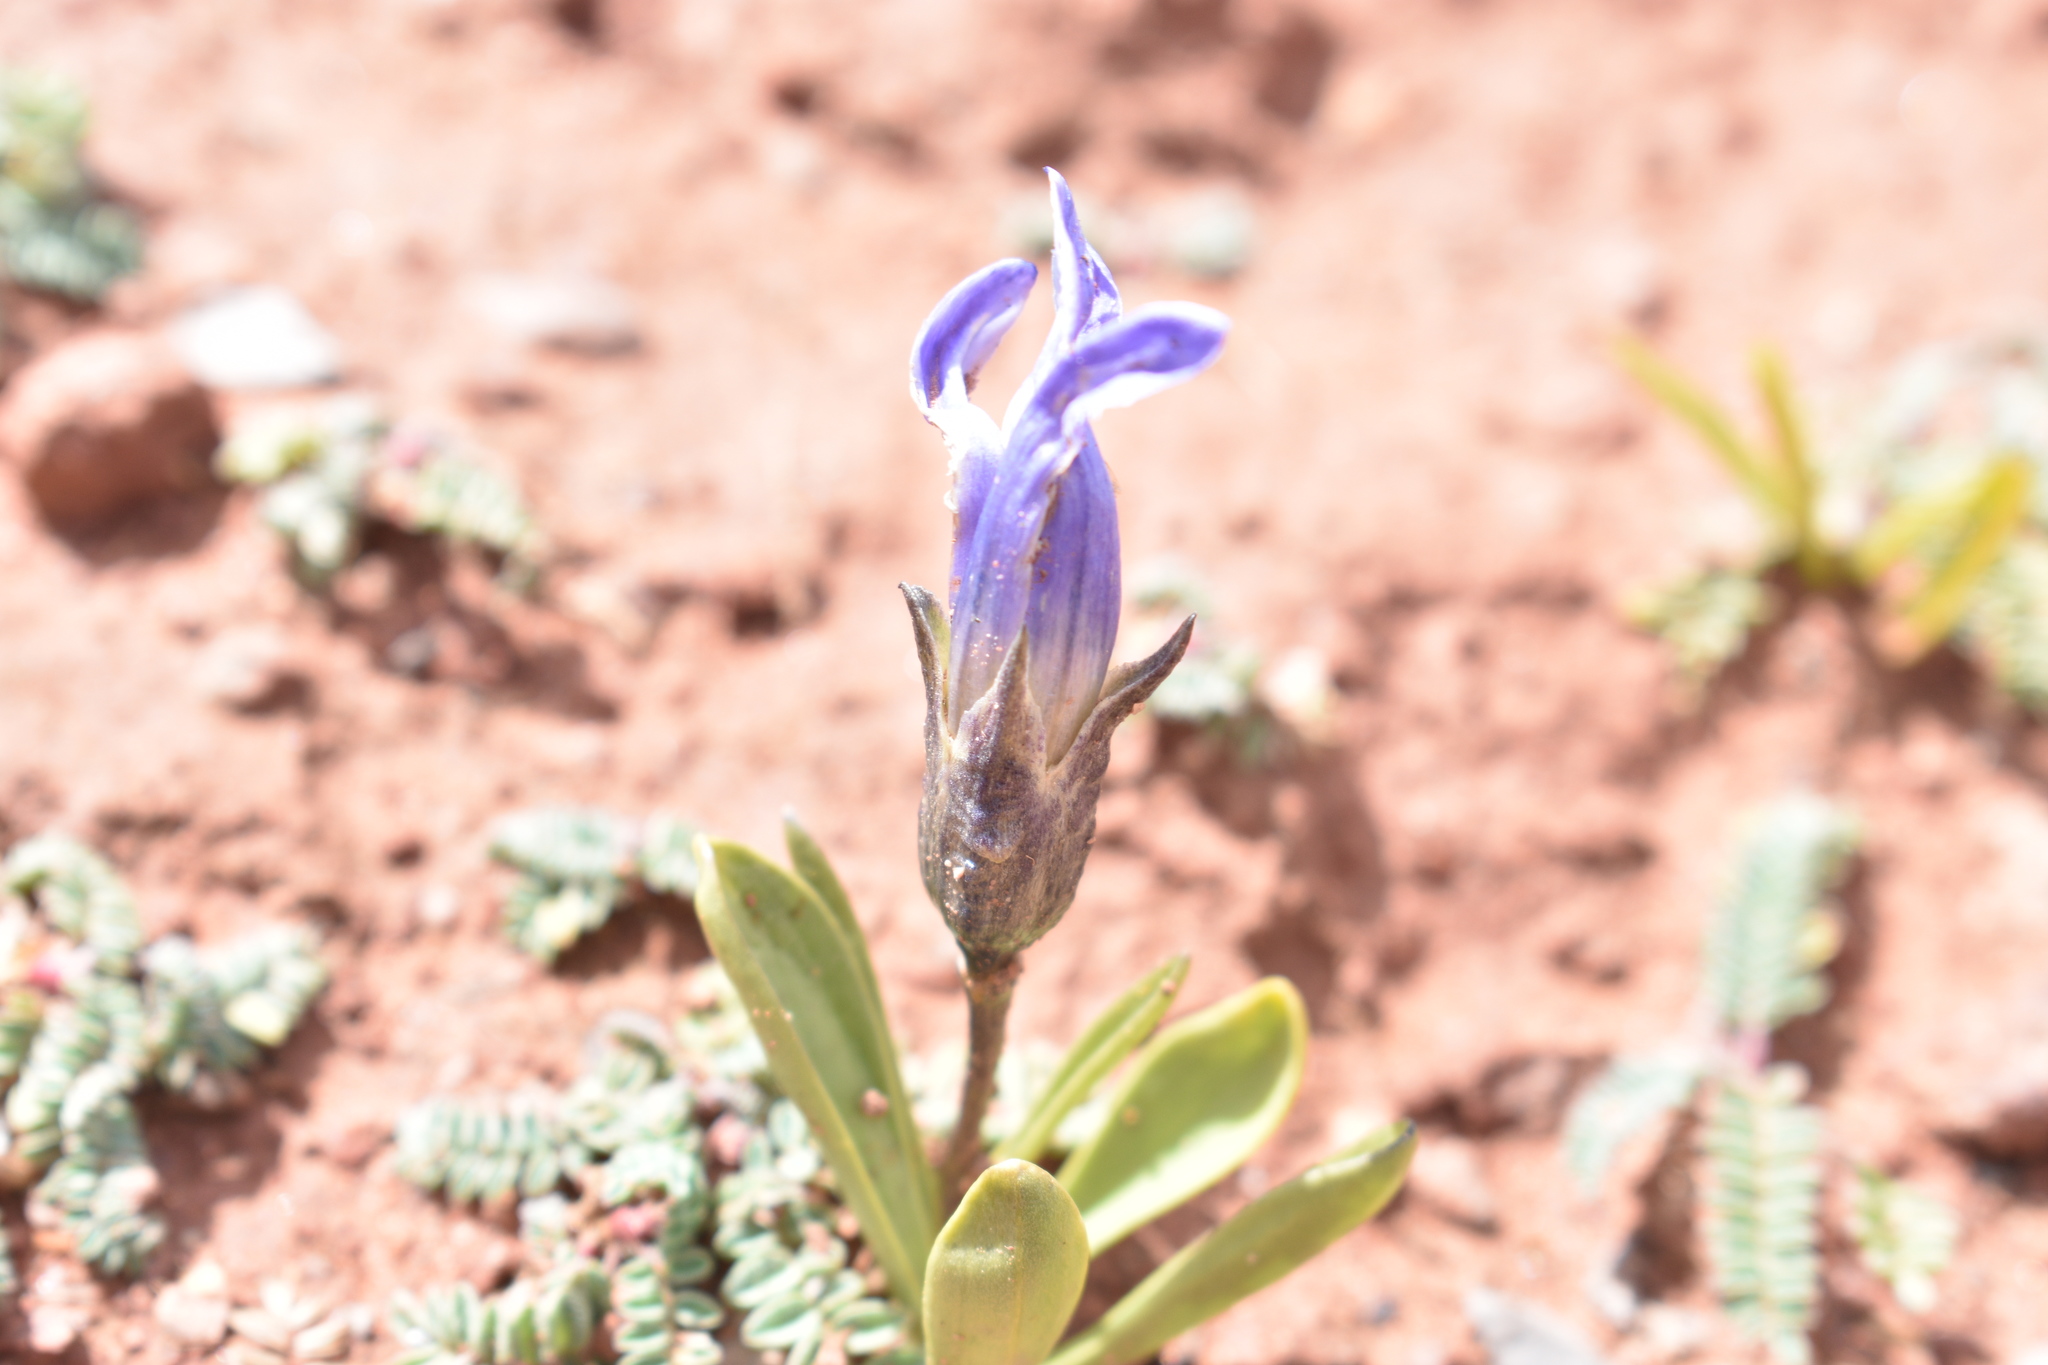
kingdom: Plantae
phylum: Tracheophyta
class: Magnoliopsida
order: Gentianales
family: Gentianaceae
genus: Gentianopsis
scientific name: Gentianopsis barbellata
